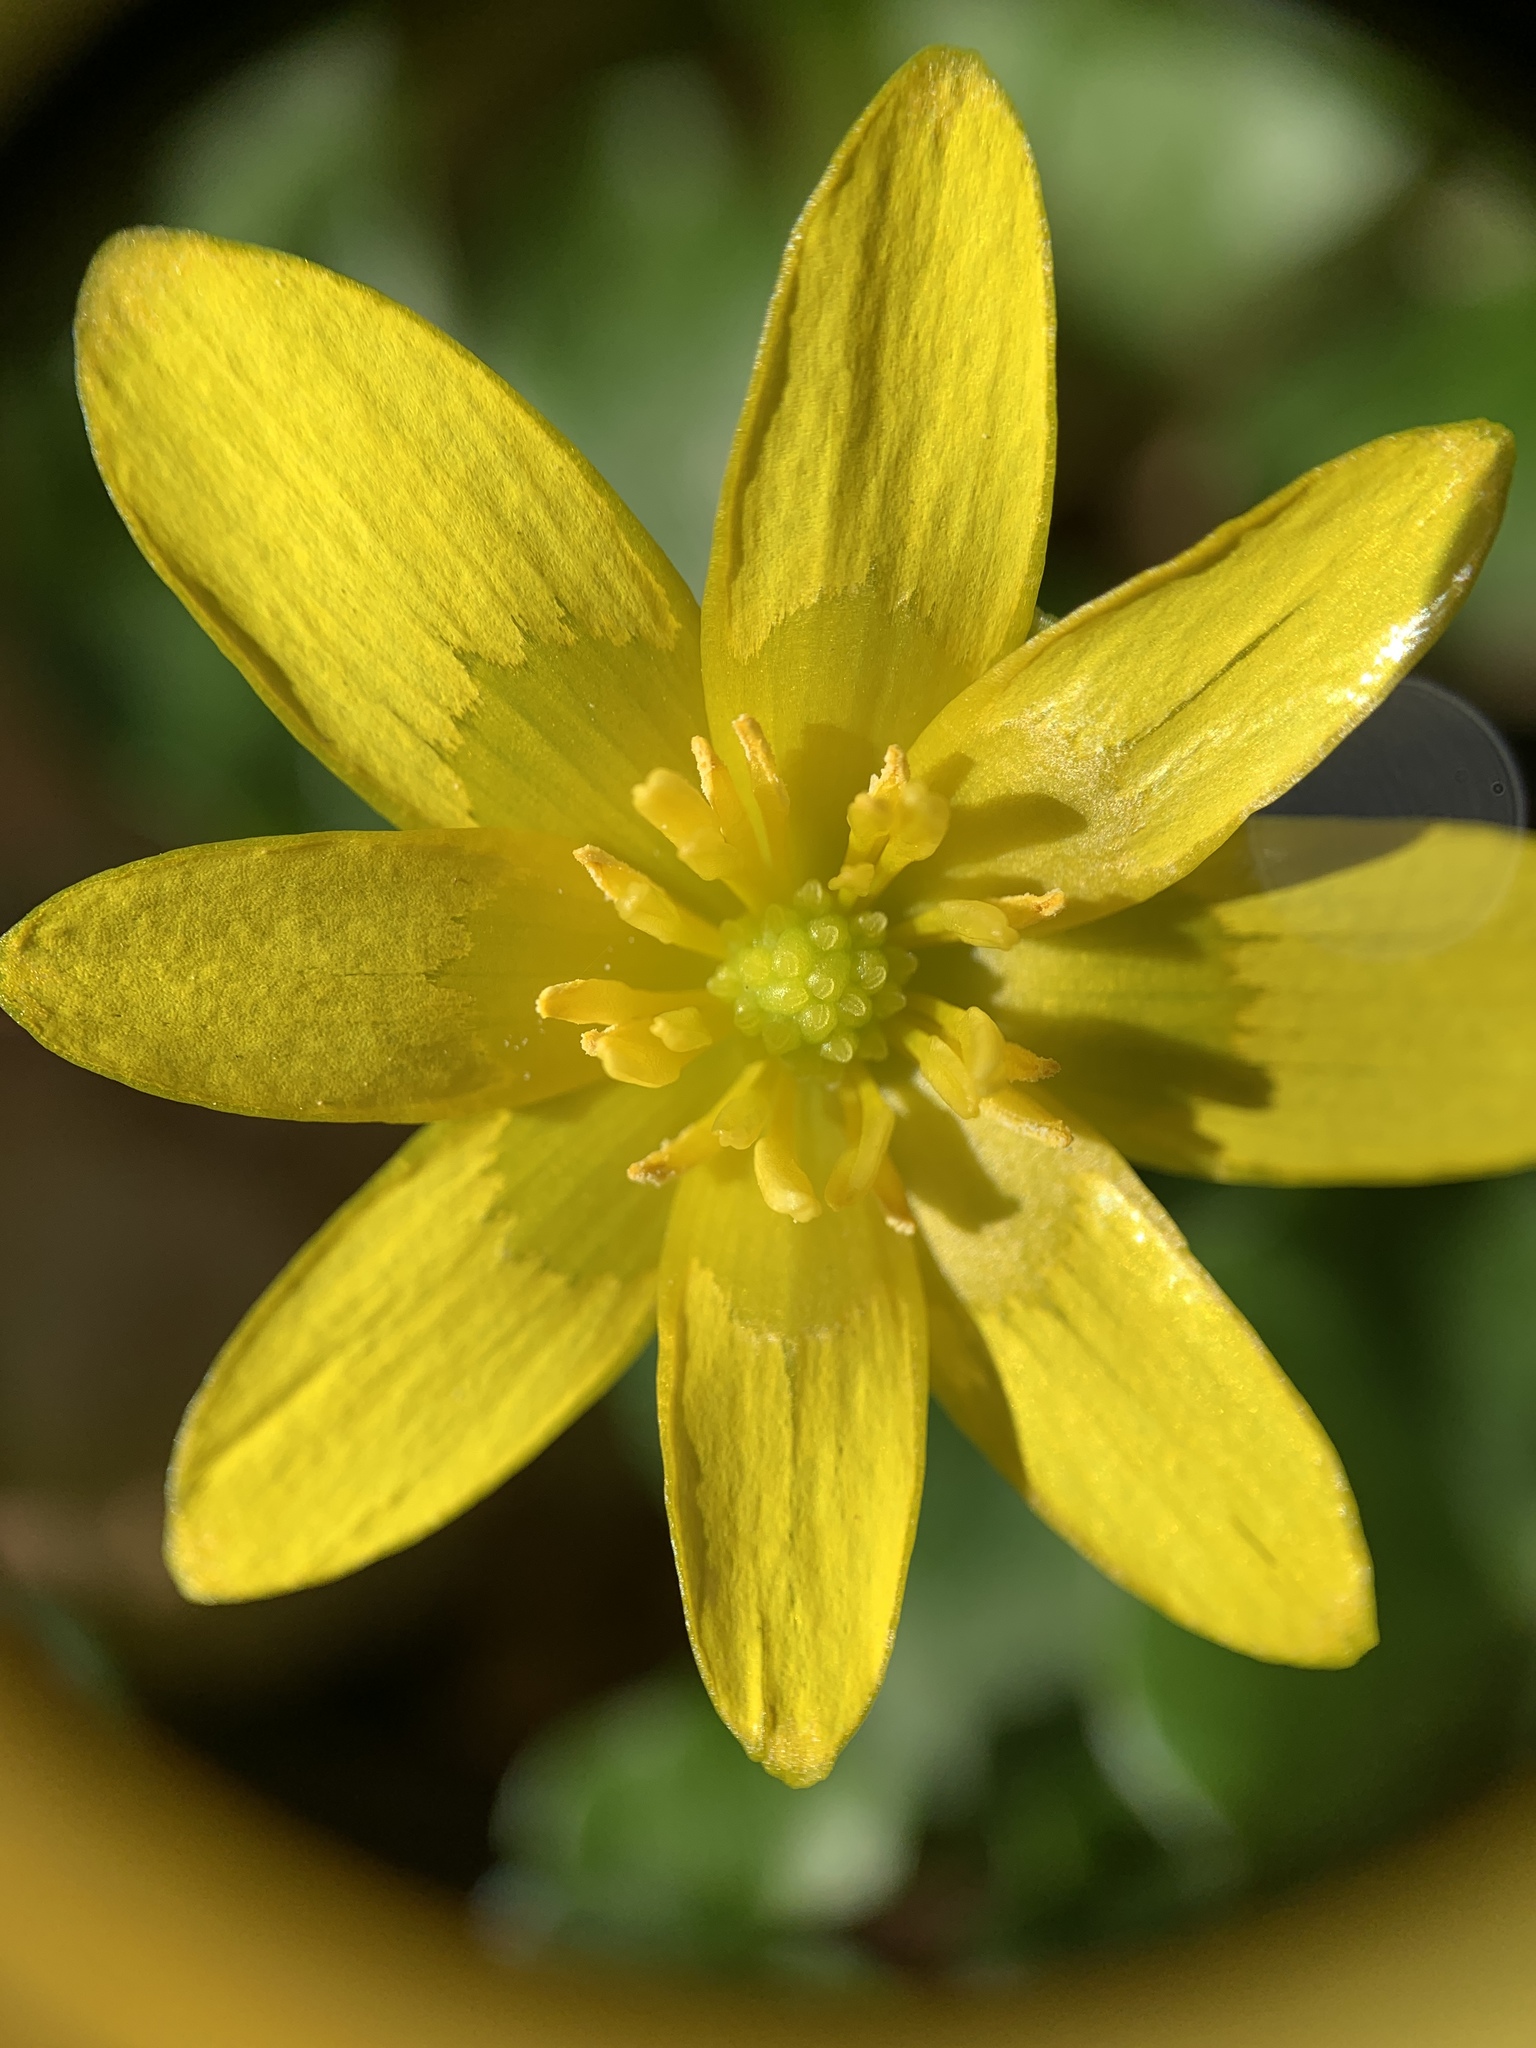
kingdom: Plantae
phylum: Tracheophyta
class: Magnoliopsida
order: Ranunculales
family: Ranunculaceae
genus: Ficaria
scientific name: Ficaria verna
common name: Lesser celandine
